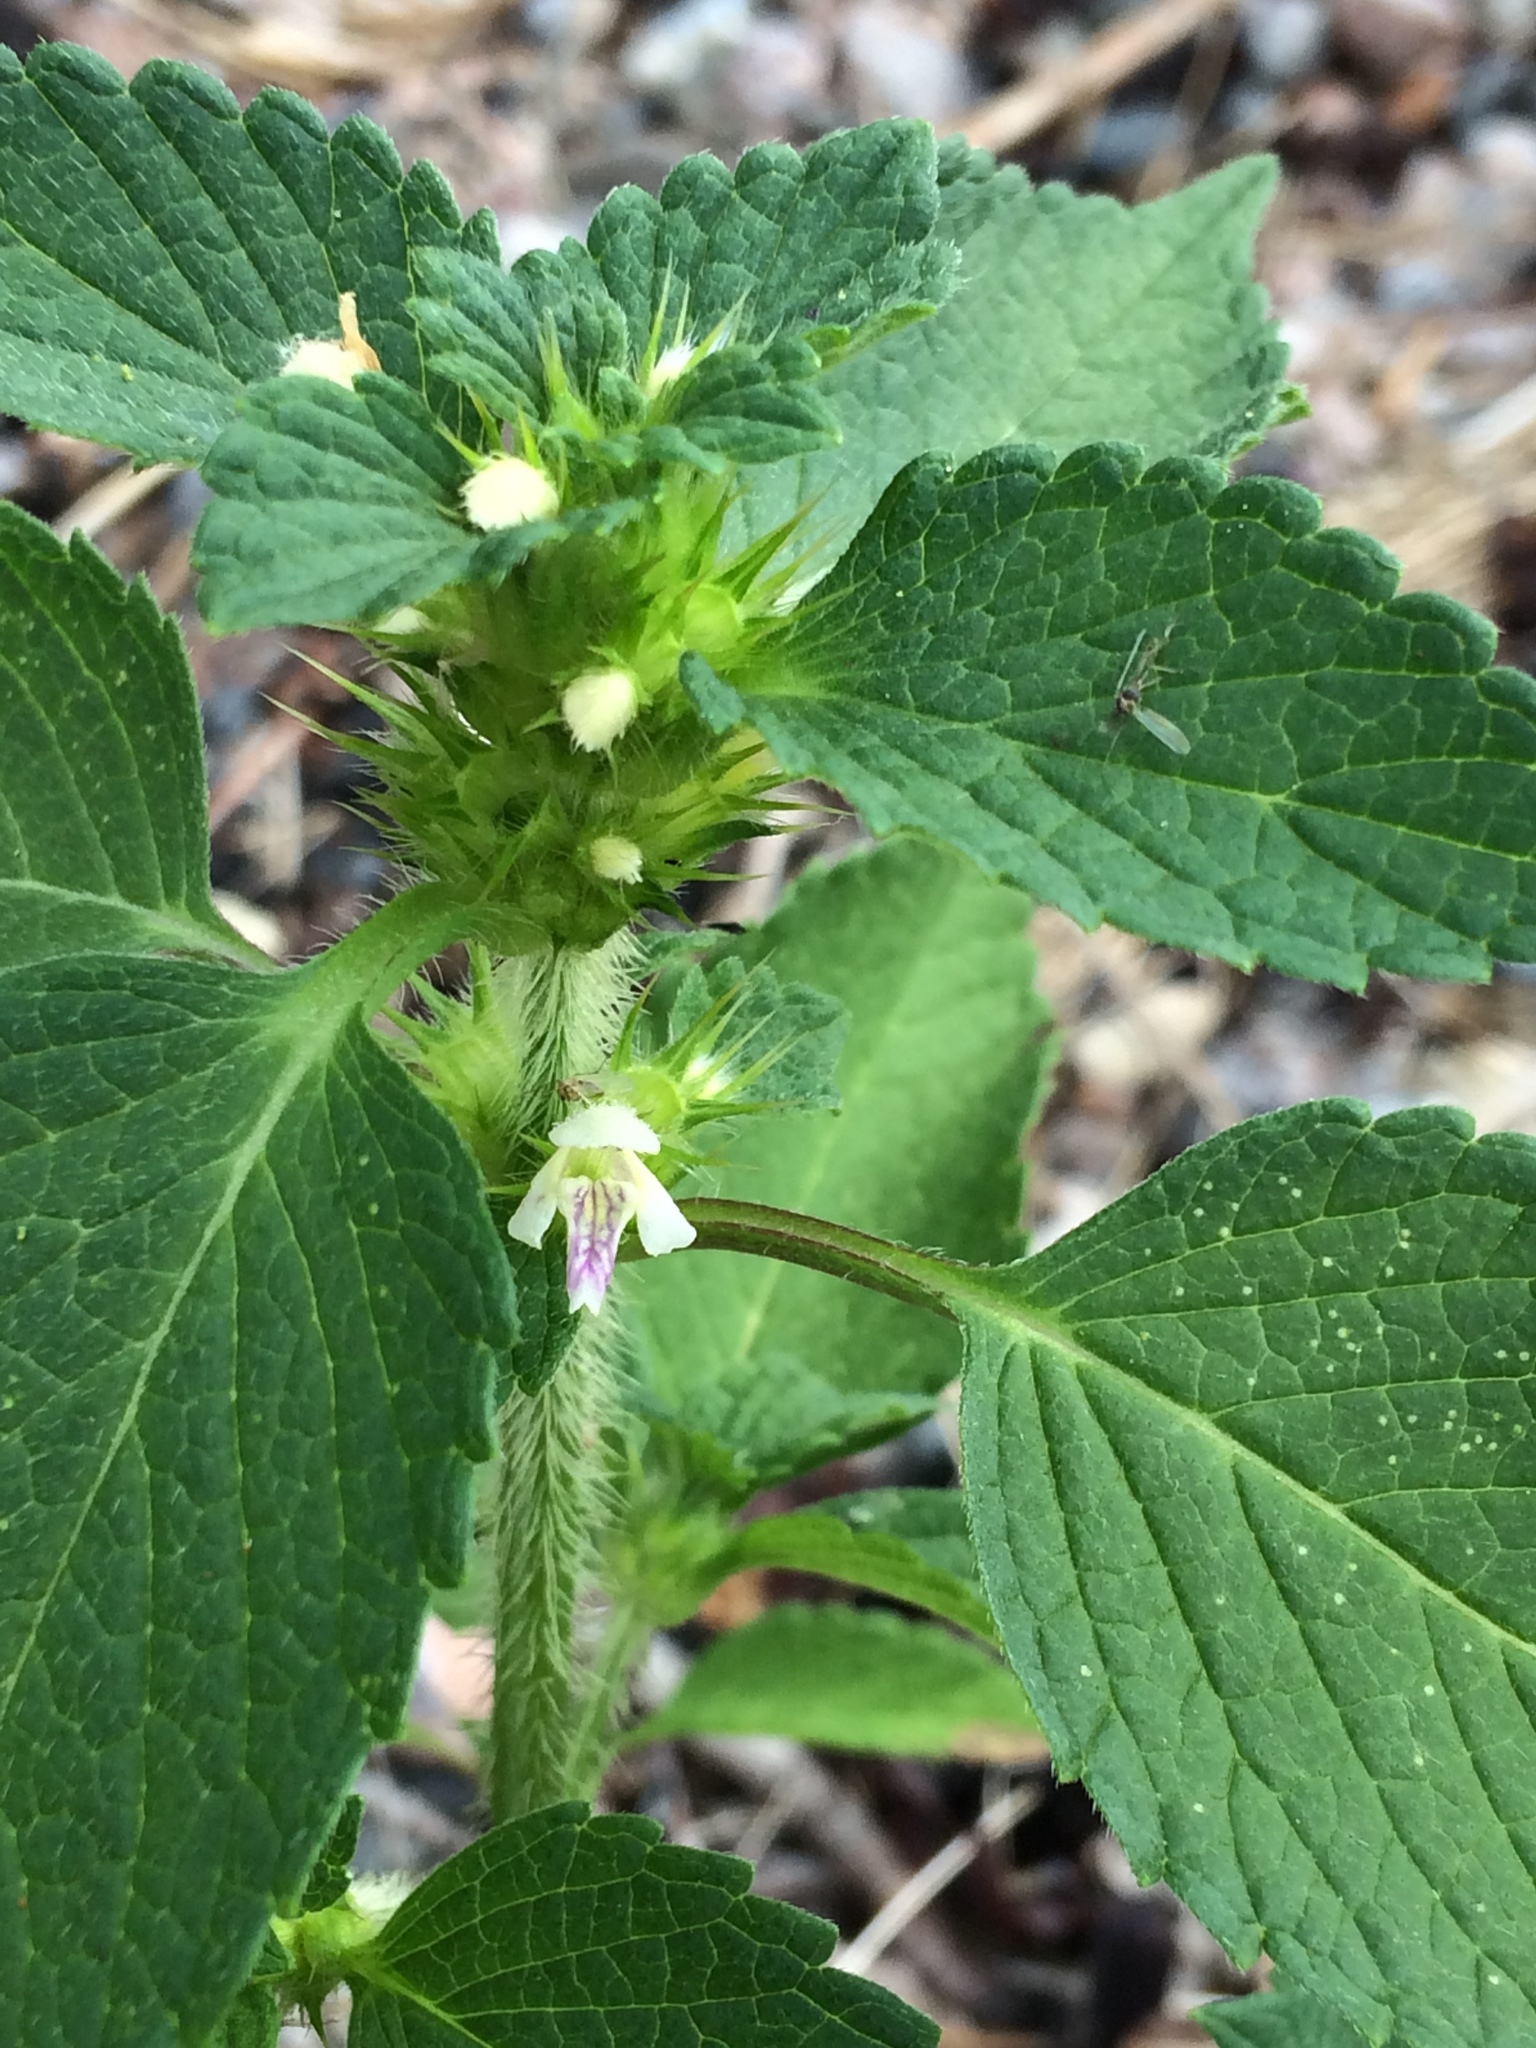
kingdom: Plantae
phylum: Tracheophyta
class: Magnoliopsida
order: Lamiales
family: Lamiaceae
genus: Galeopsis
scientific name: Galeopsis bifida
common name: Bifid hemp-nettle
